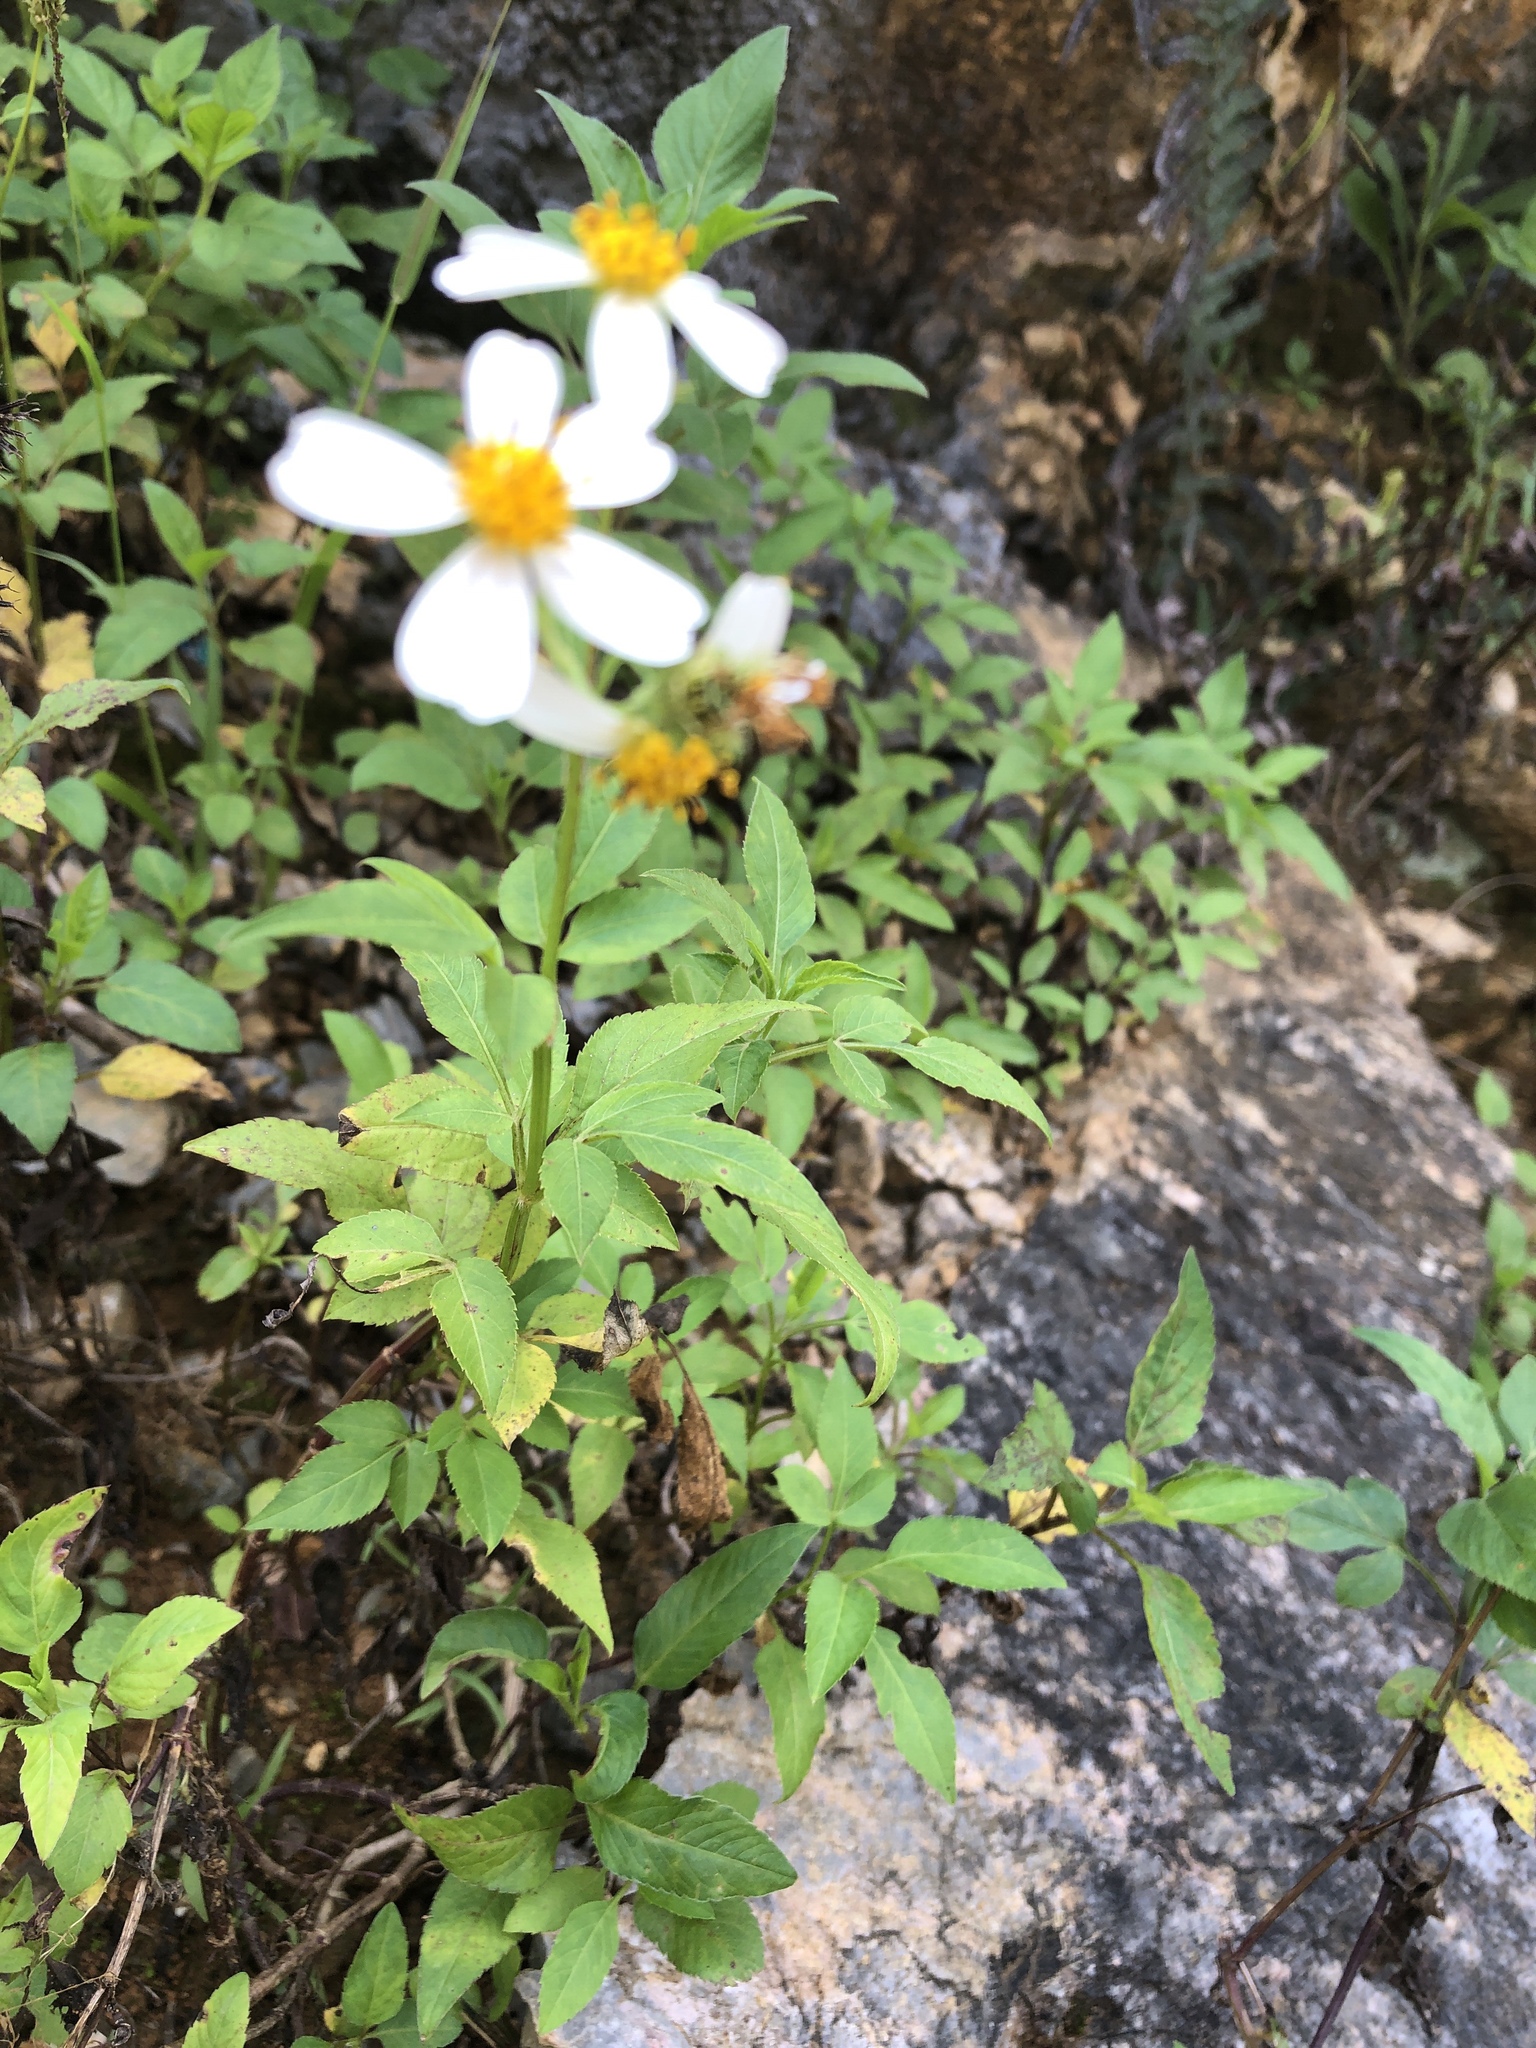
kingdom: Plantae
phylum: Tracheophyta
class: Magnoliopsida
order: Asterales
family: Asteraceae
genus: Bidens
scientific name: Bidens pilosa
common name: Black-jack
